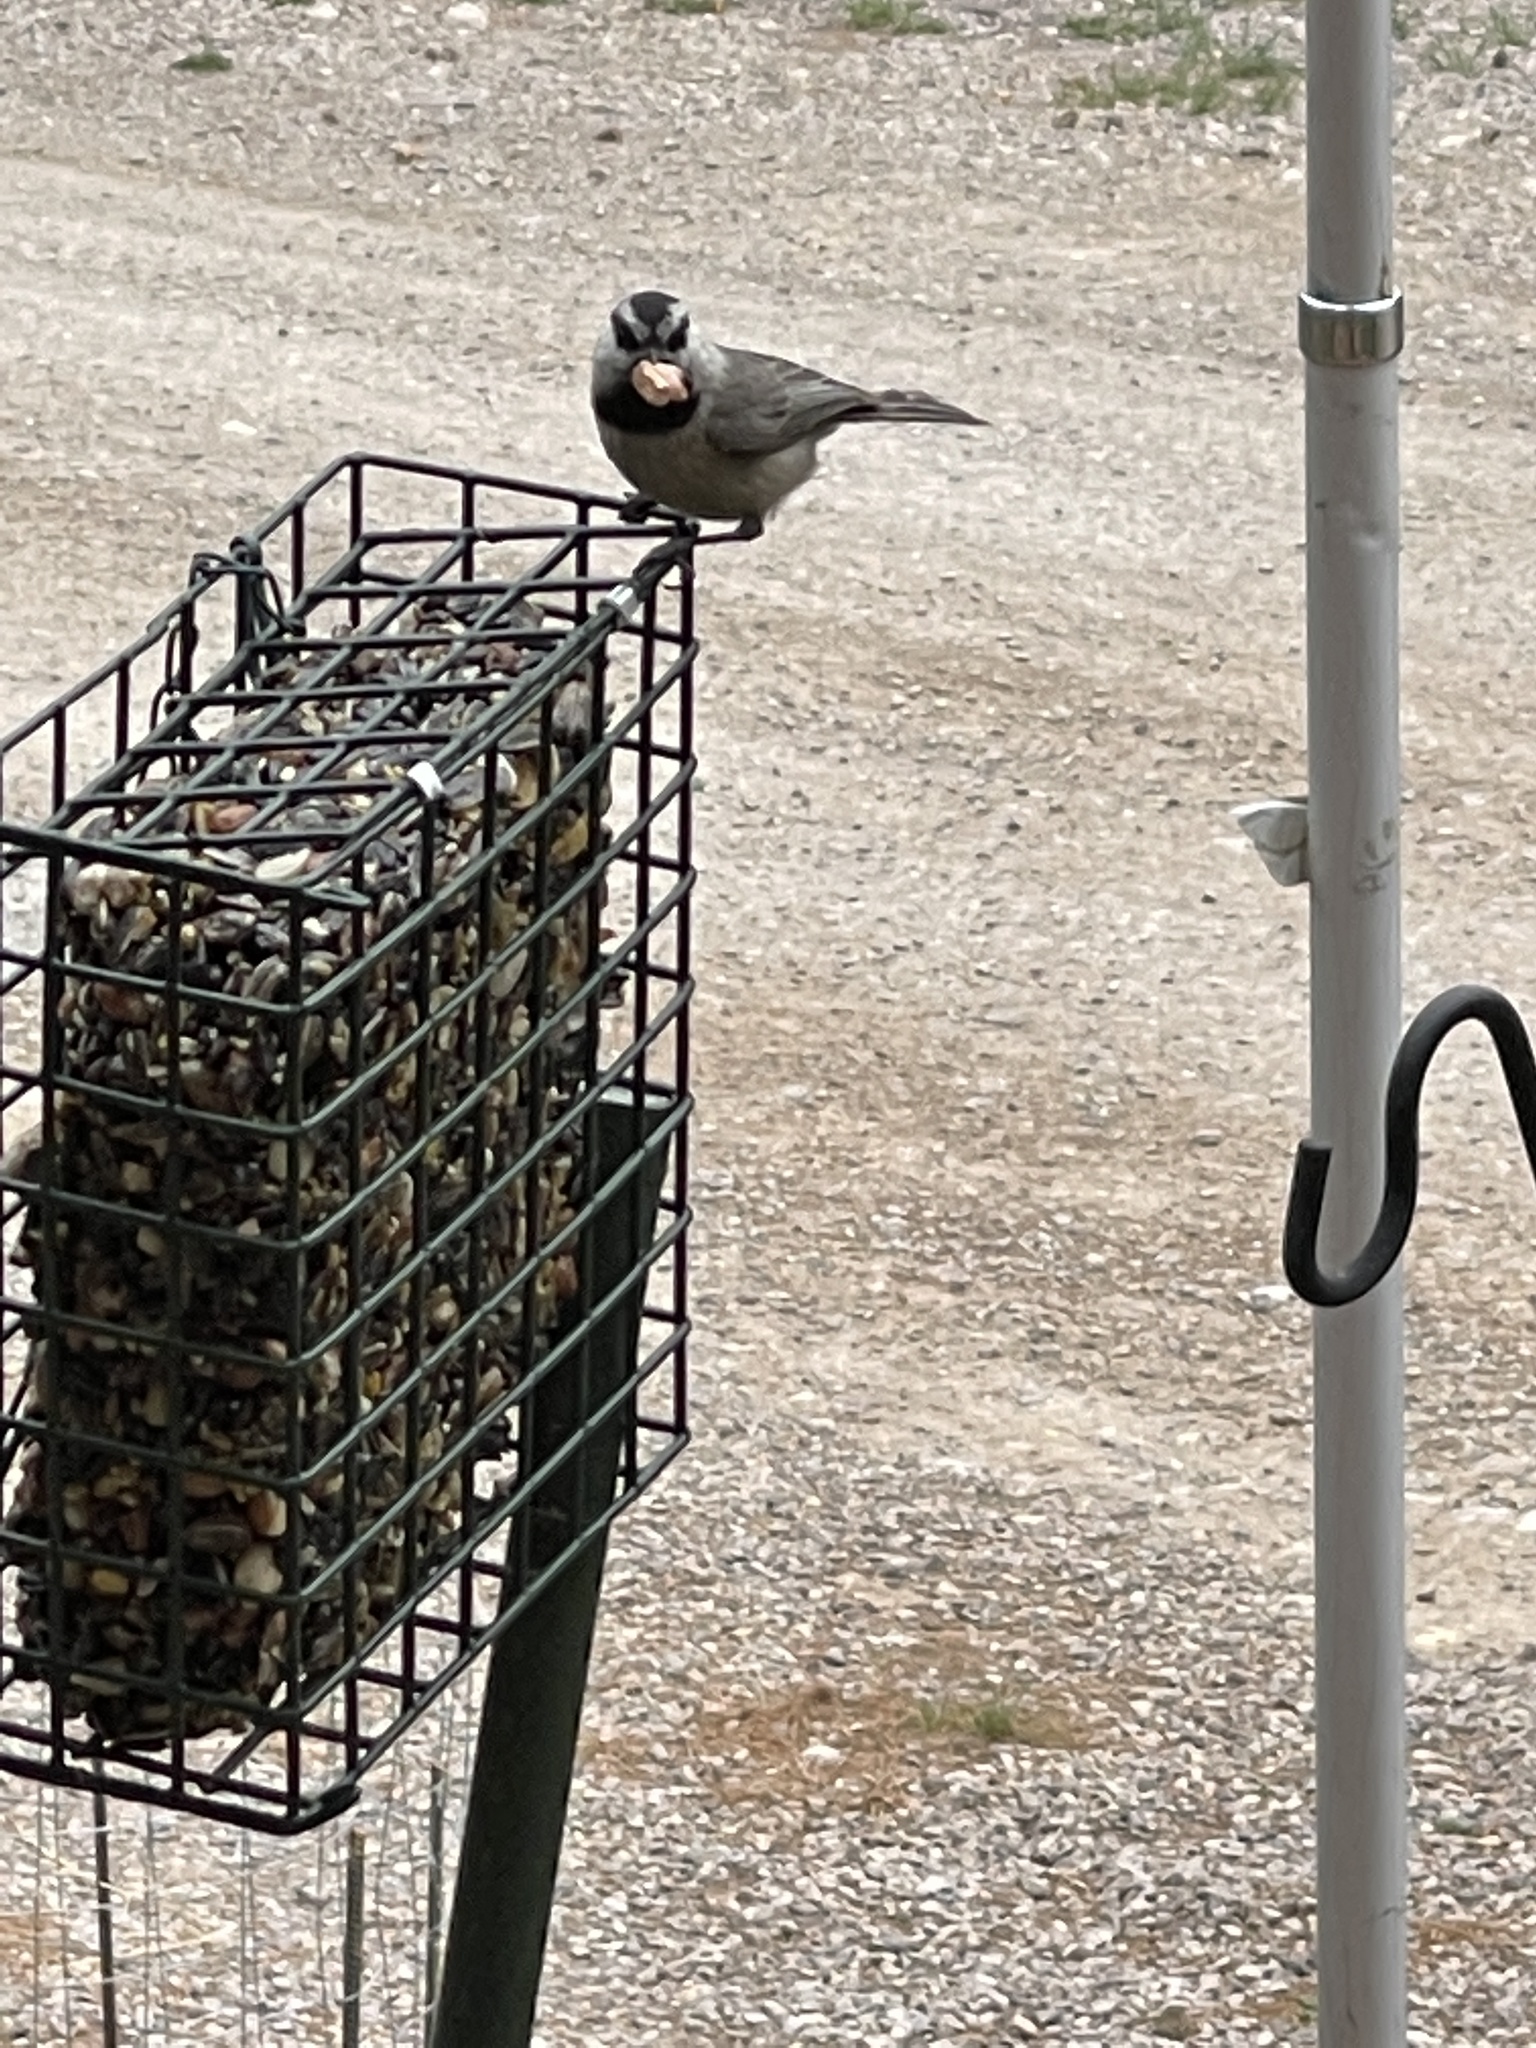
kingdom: Animalia
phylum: Chordata
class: Aves
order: Passeriformes
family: Paridae
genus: Poecile
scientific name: Poecile gambeli
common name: Mountain chickadee
